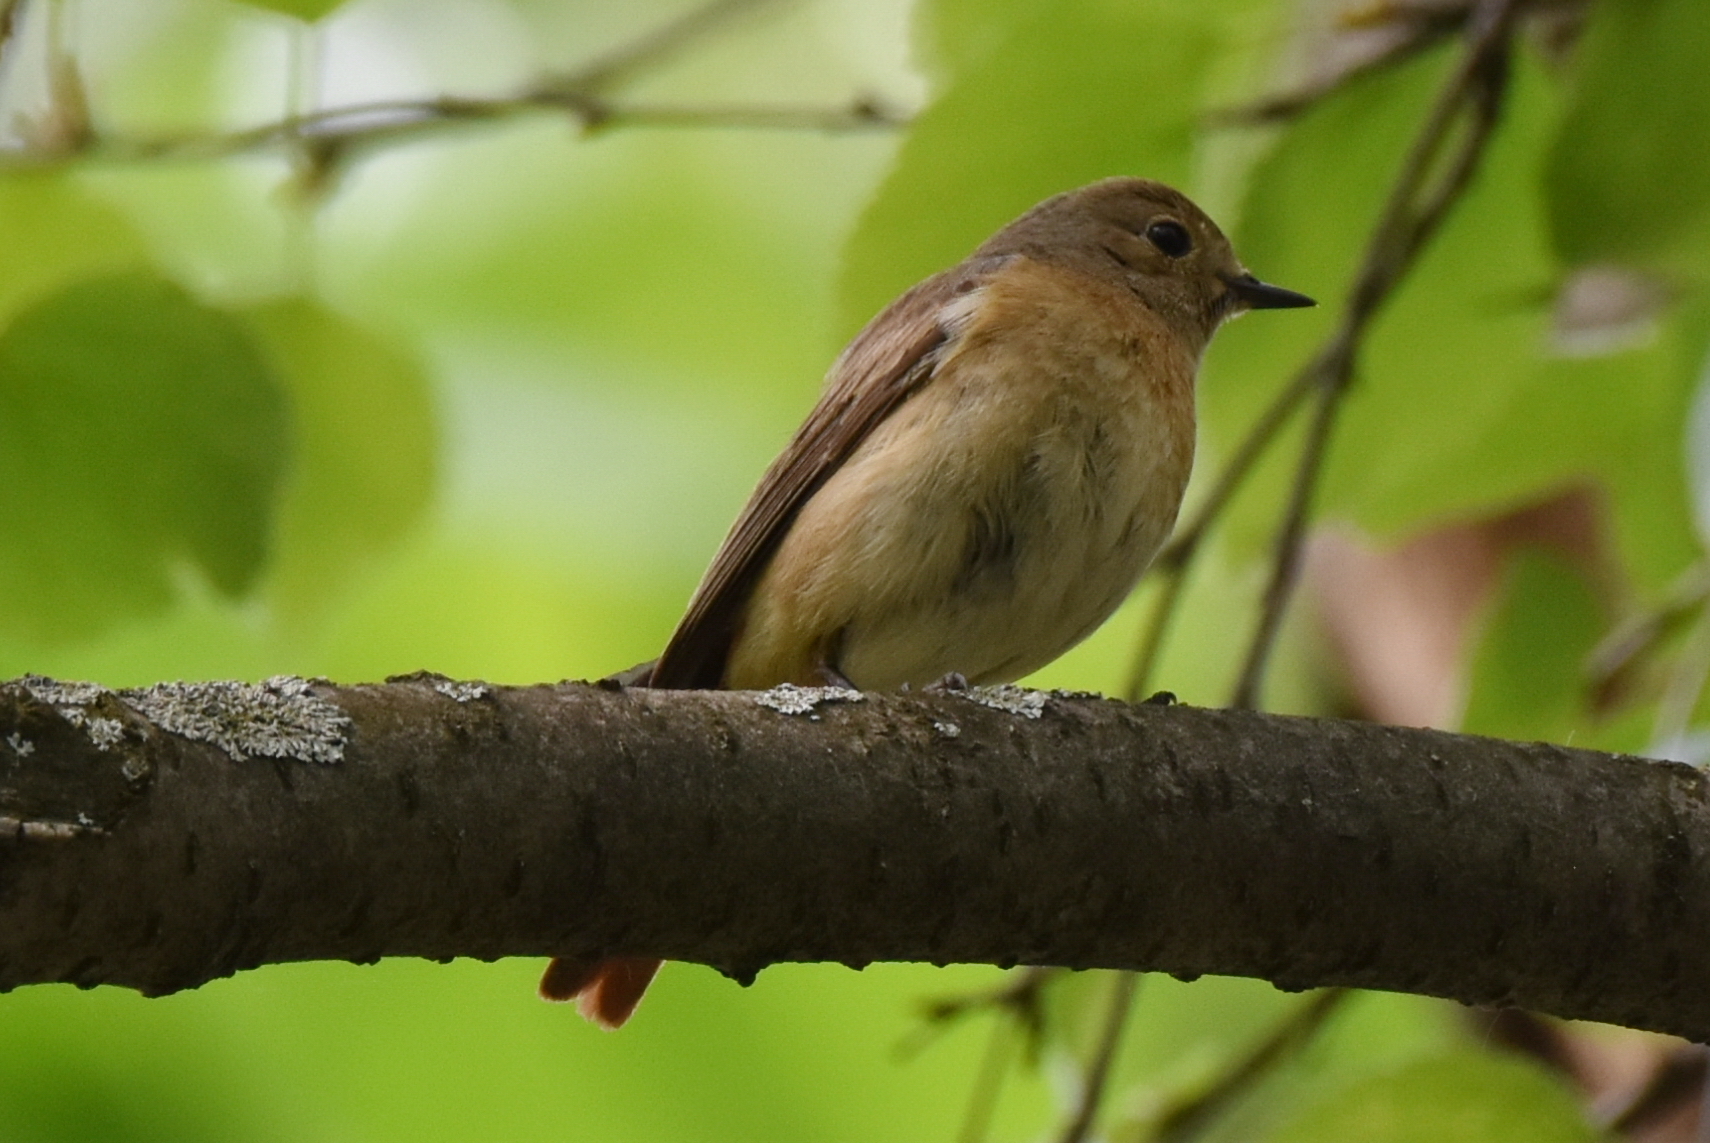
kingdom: Animalia
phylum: Chordata
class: Aves
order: Passeriformes
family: Muscicapidae
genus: Phoenicurus
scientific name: Phoenicurus phoenicurus
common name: Common redstart
